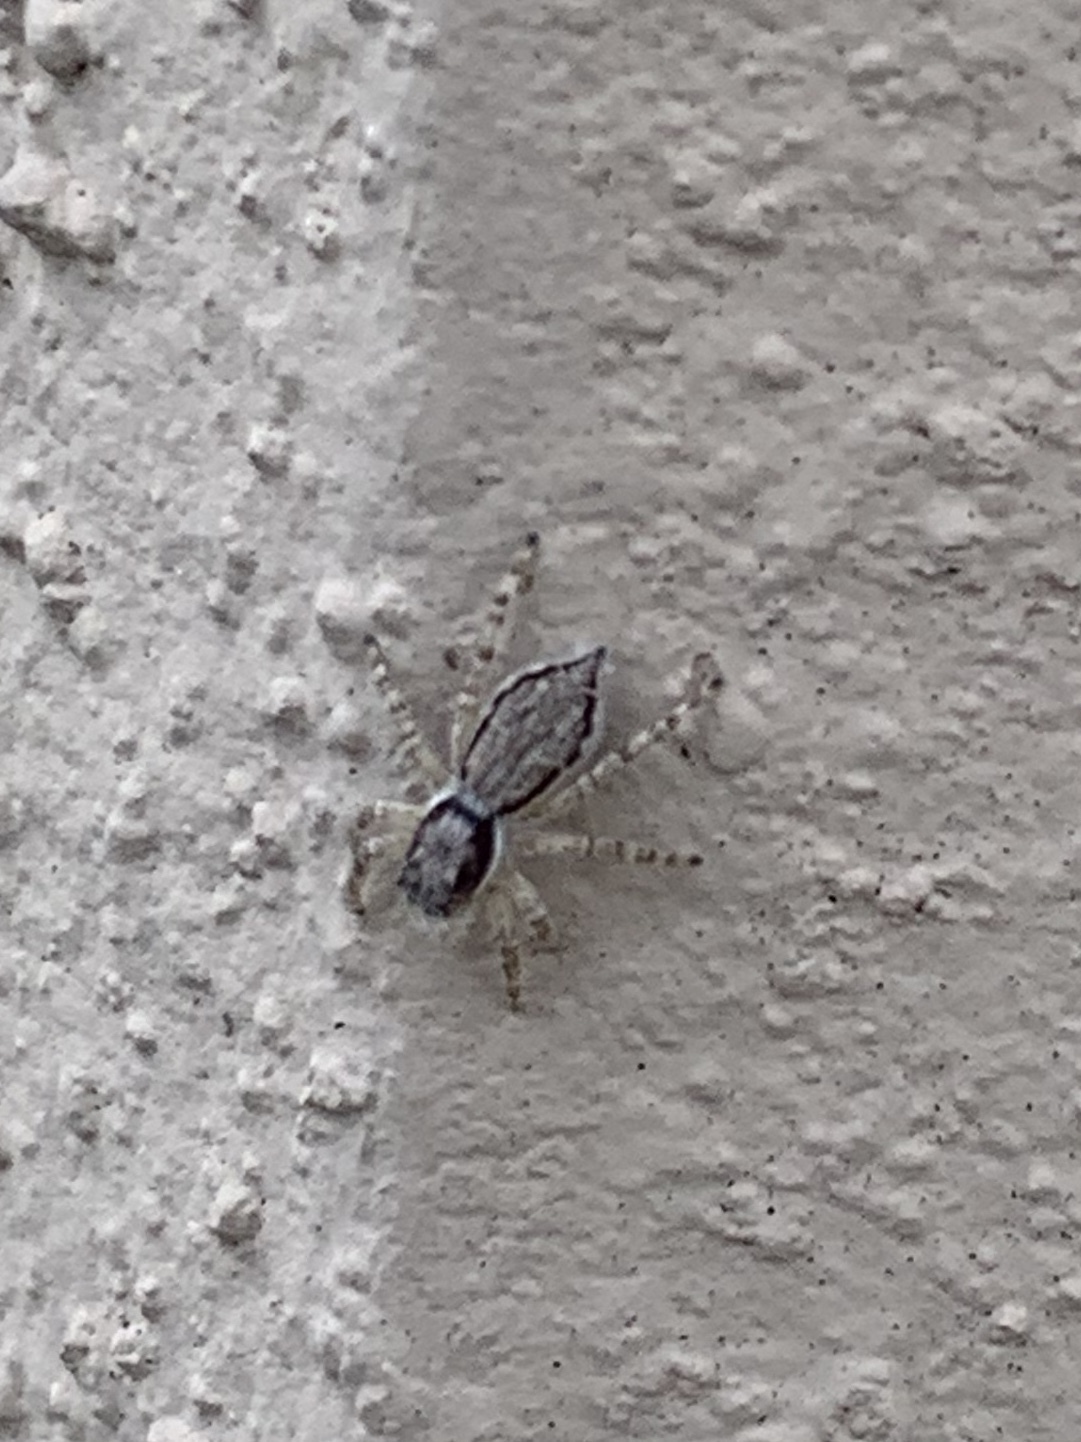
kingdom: Animalia
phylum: Arthropoda
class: Arachnida
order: Araneae
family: Salticidae
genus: Menemerus
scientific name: Menemerus bivittatus
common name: Gray wall jumper
